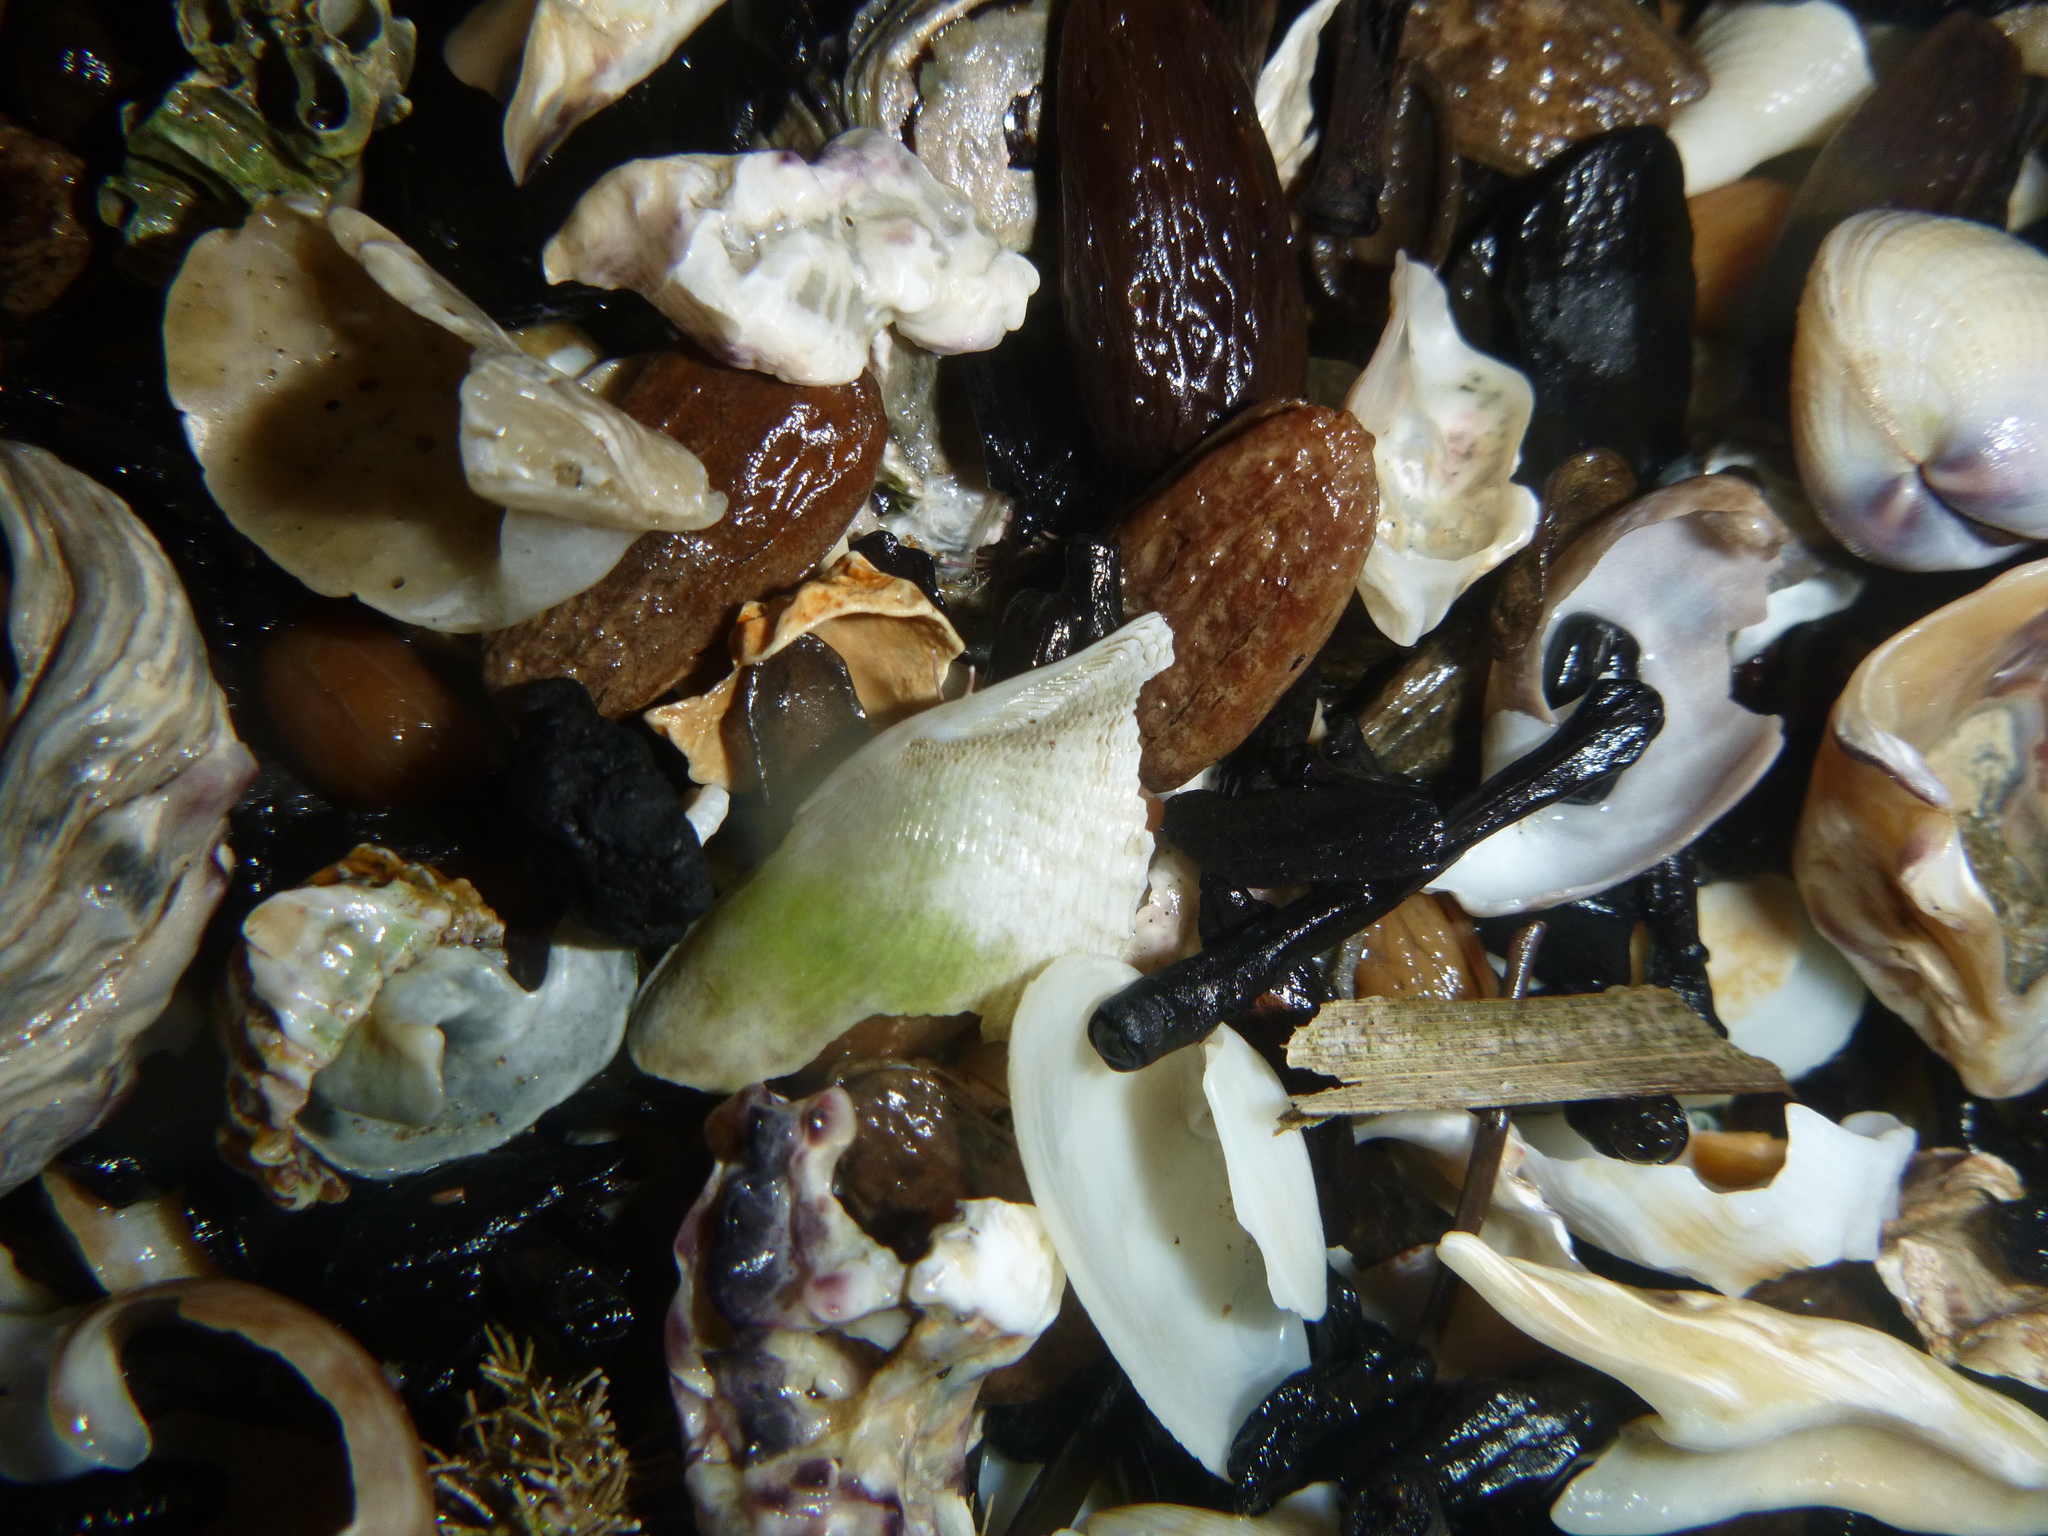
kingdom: Animalia
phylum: Mollusca
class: Bivalvia
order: Myida
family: Pholadidae
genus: Barnea
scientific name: Barnea similis
